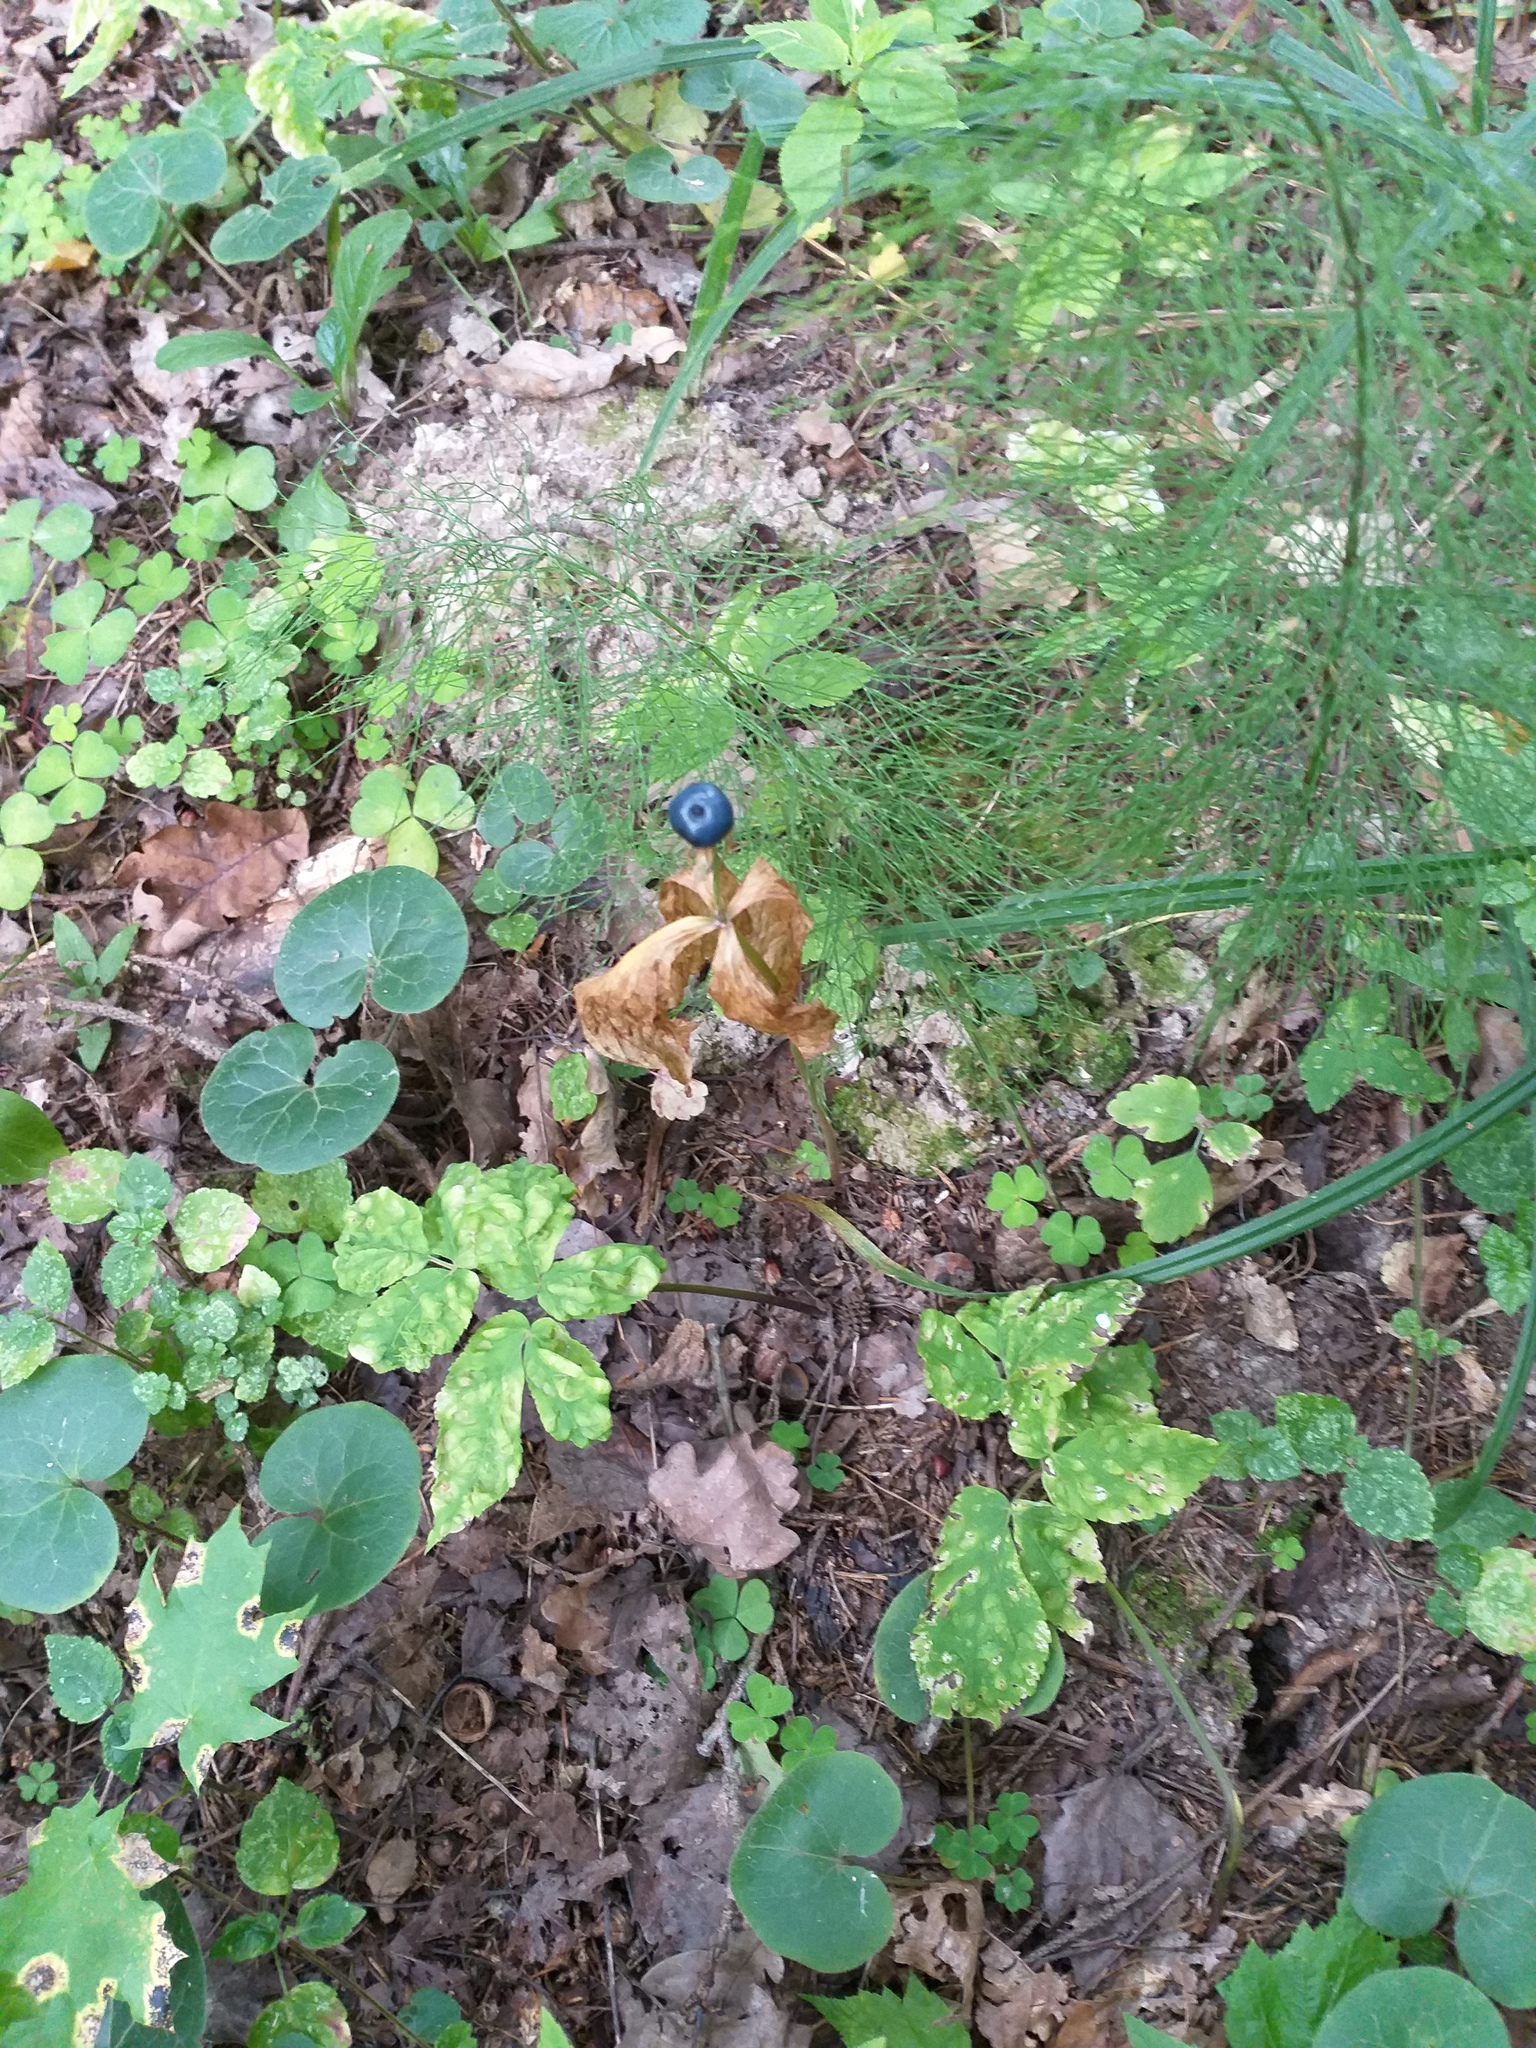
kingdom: Plantae
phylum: Tracheophyta
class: Liliopsida
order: Liliales
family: Melanthiaceae
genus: Paris
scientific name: Paris quadrifolia
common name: Herb-paris
